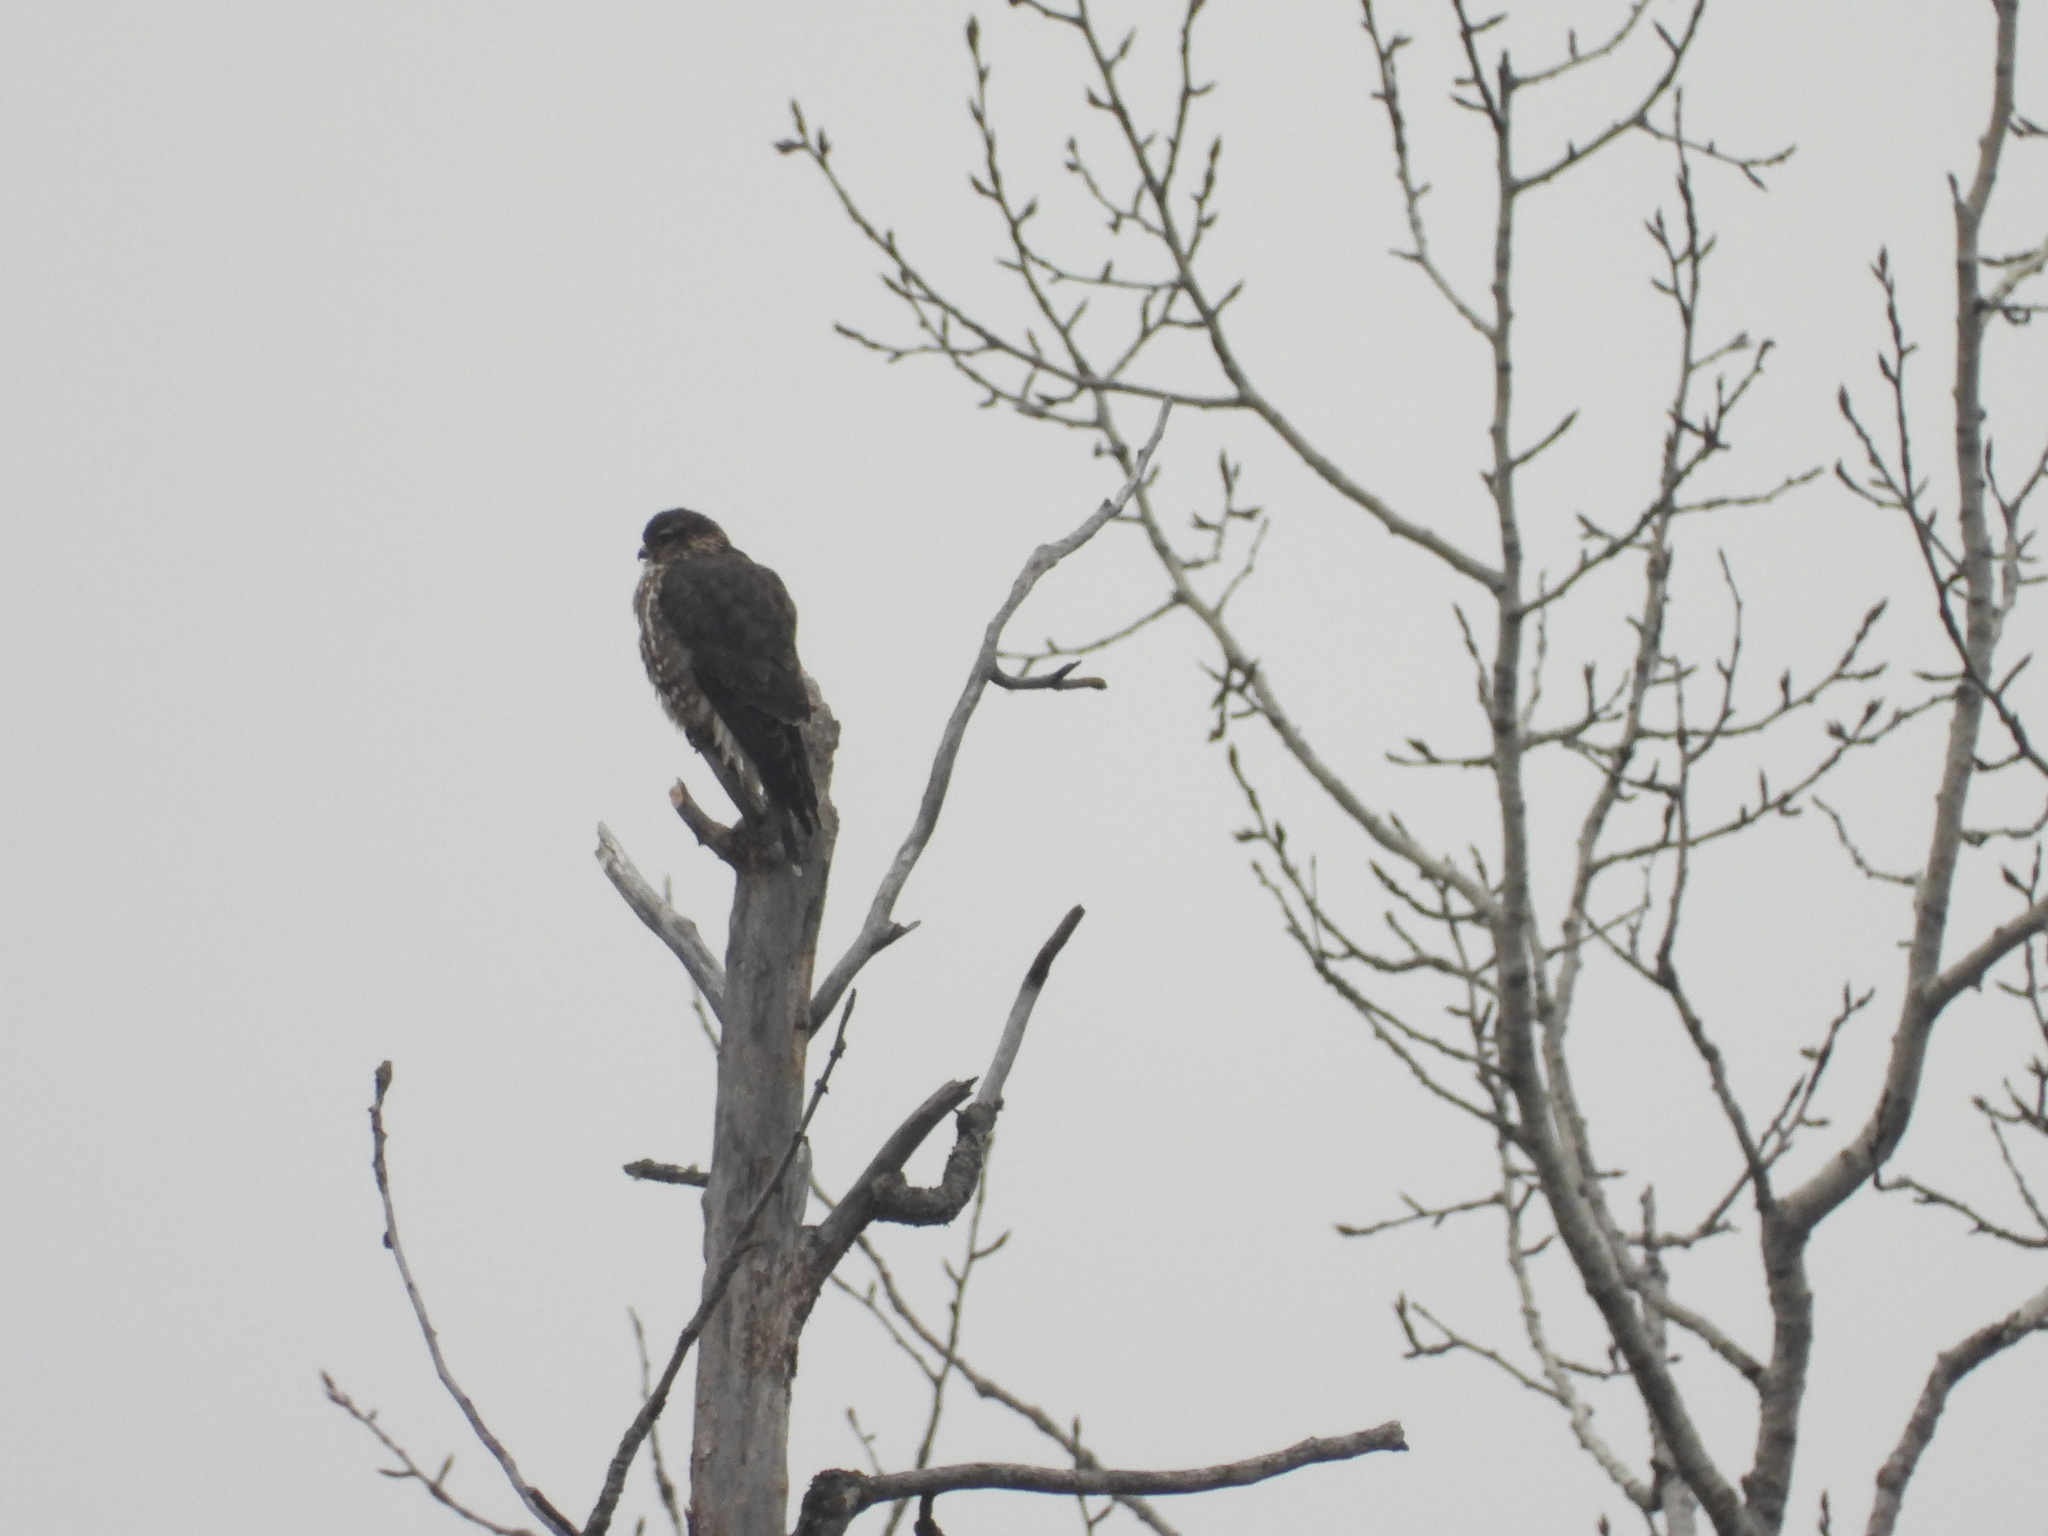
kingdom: Animalia
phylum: Chordata
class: Aves
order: Falconiformes
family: Falconidae
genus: Falco
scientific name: Falco columbarius
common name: Merlin
